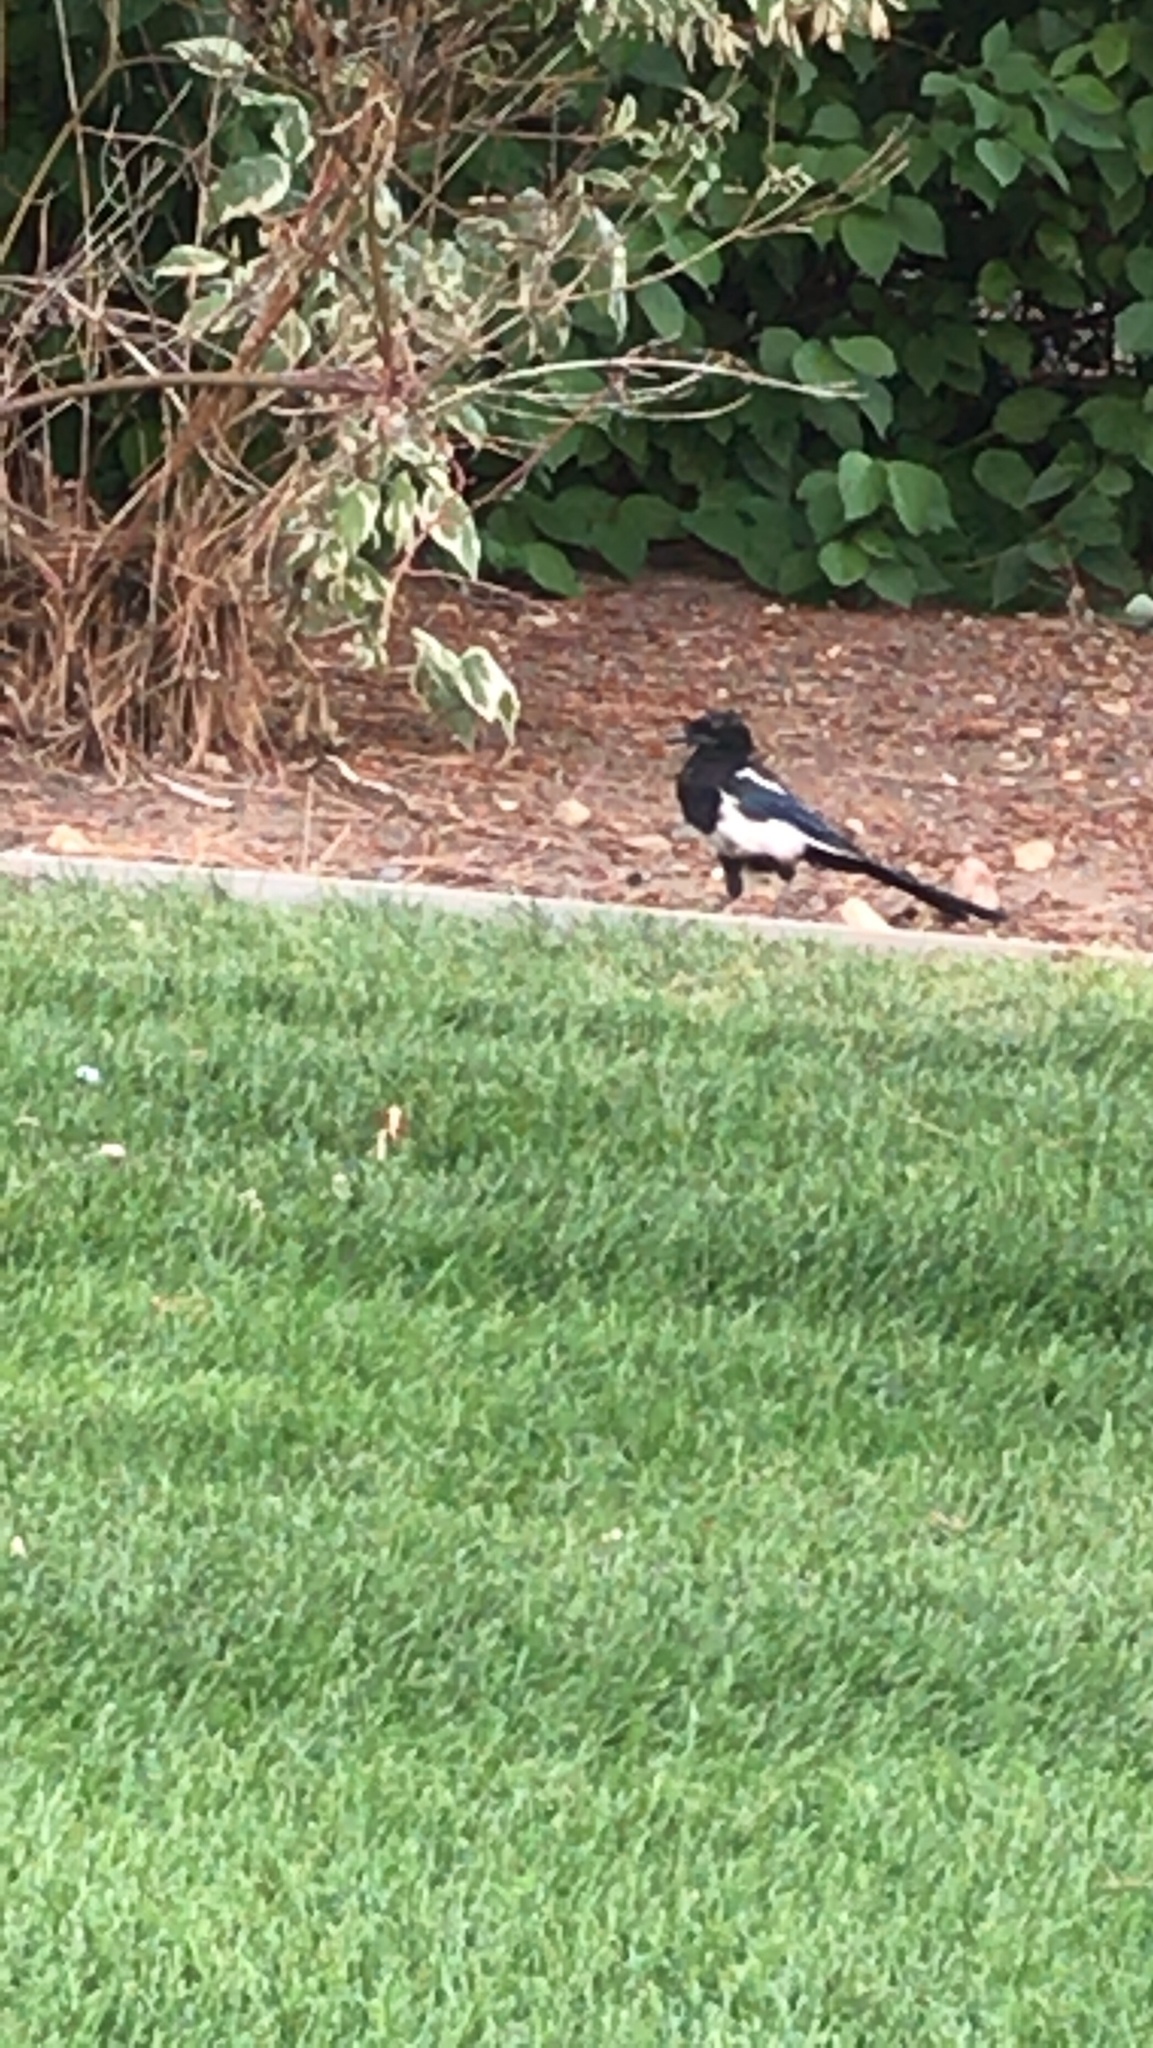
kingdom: Animalia
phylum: Chordata
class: Aves
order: Passeriformes
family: Corvidae
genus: Pica
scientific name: Pica hudsonia
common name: Black-billed magpie
